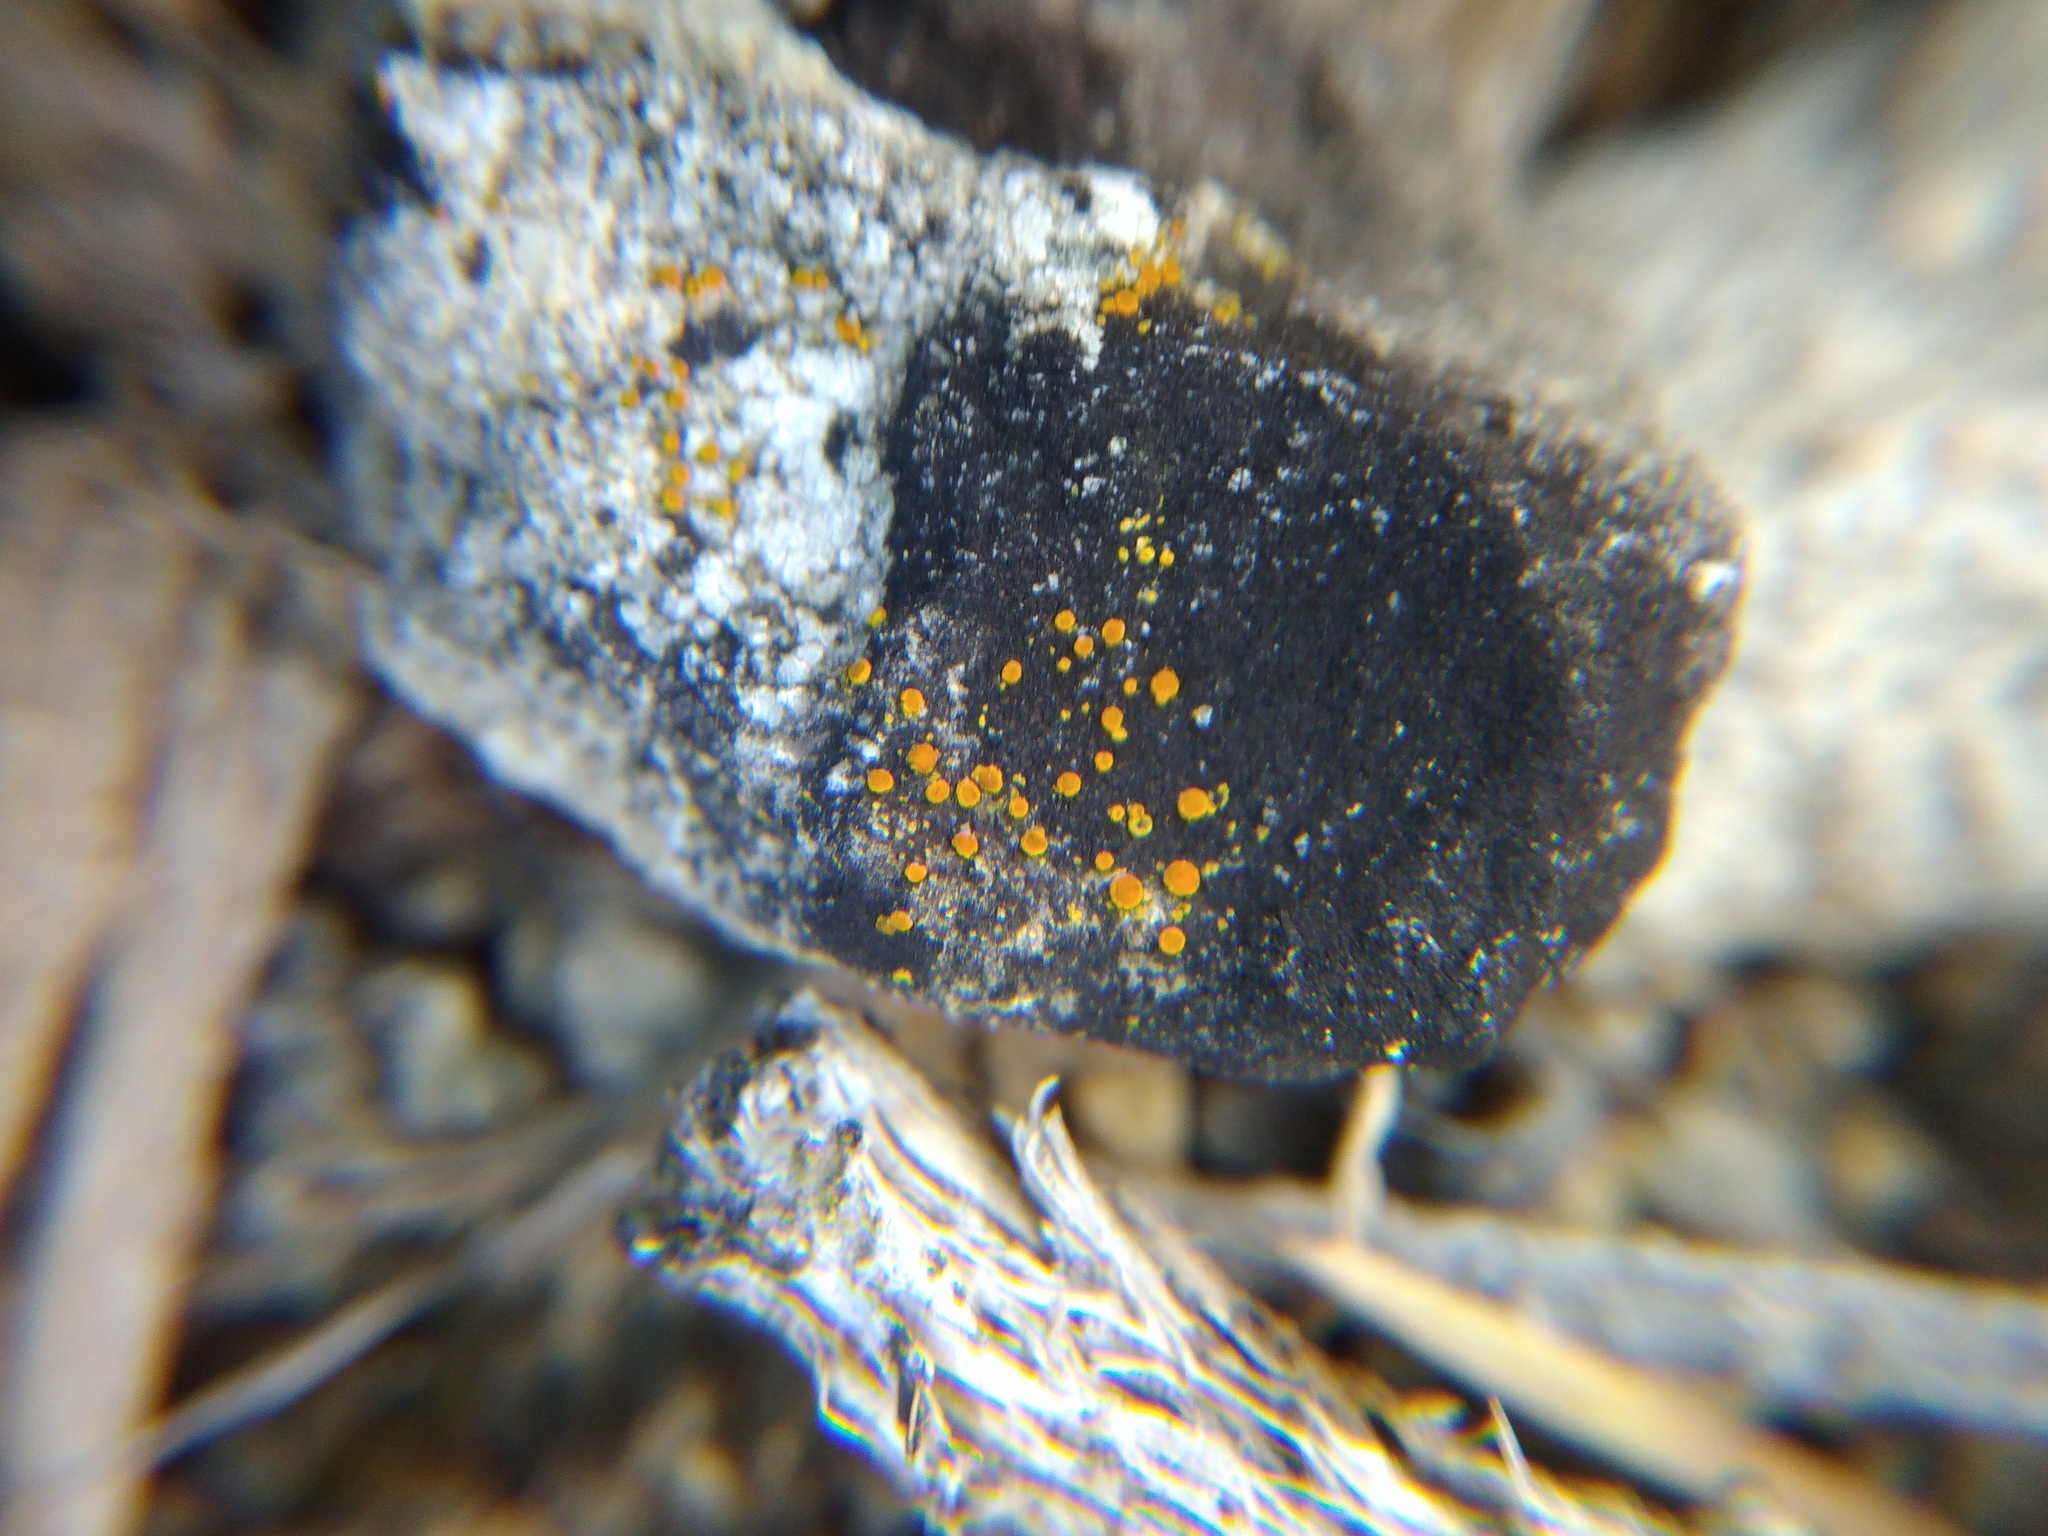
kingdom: Fungi
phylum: Ascomycota
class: Lecanoromycetes
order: Teloschistales
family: Teloschistaceae
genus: Xanthocarpia
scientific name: Xanthocarpia crenulatella
